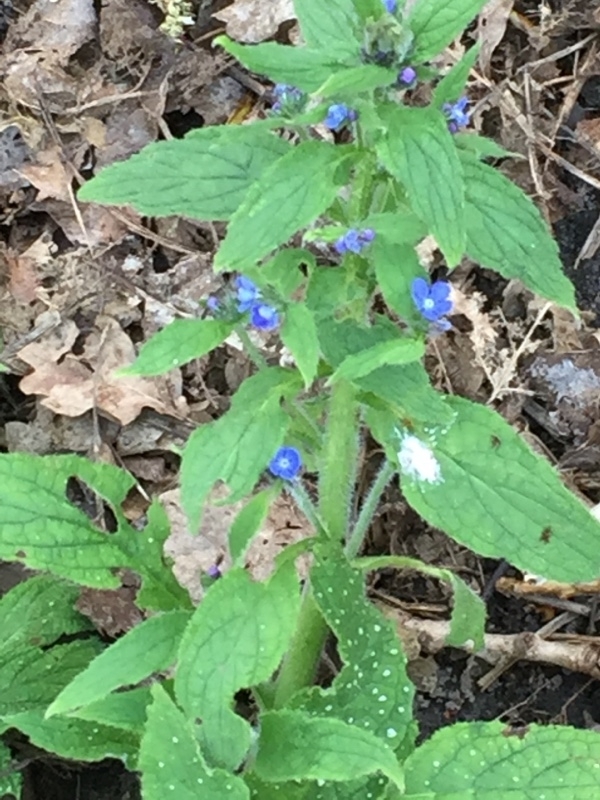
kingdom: Plantae
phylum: Tracheophyta
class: Magnoliopsida
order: Boraginales
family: Boraginaceae
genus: Pentaglottis
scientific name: Pentaglottis sempervirens
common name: Green alkanet
